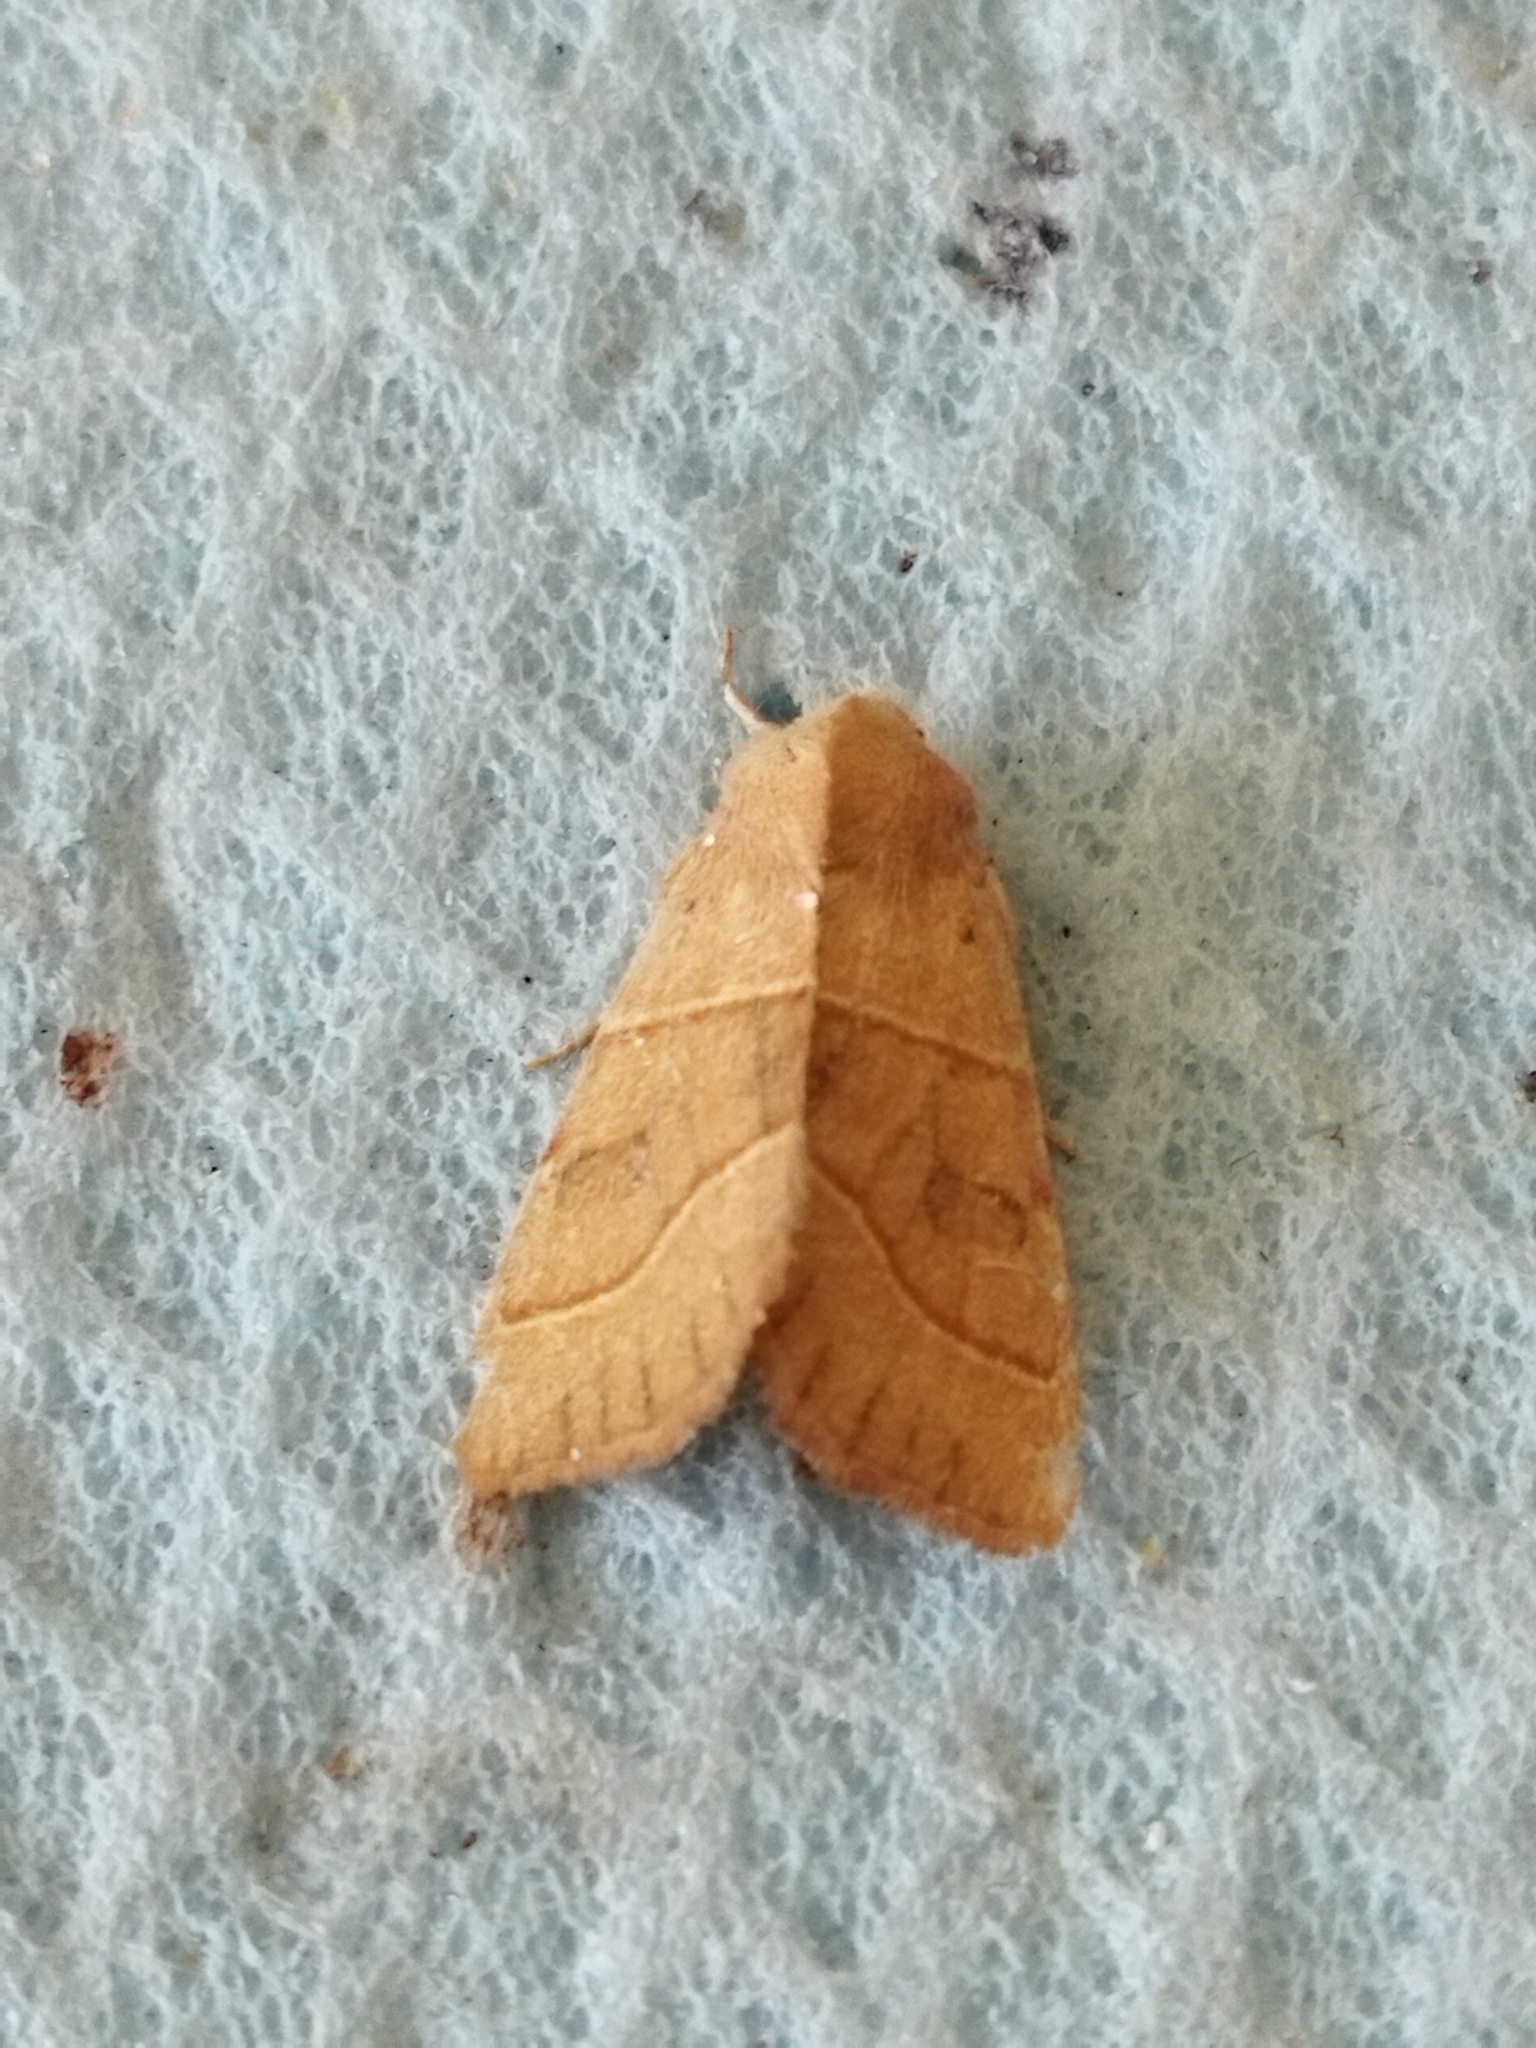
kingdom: Animalia
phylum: Arthropoda
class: Insecta
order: Lepidoptera
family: Noctuidae
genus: Atethmia
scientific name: Atethmia centrago
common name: Centre-barred sallow
